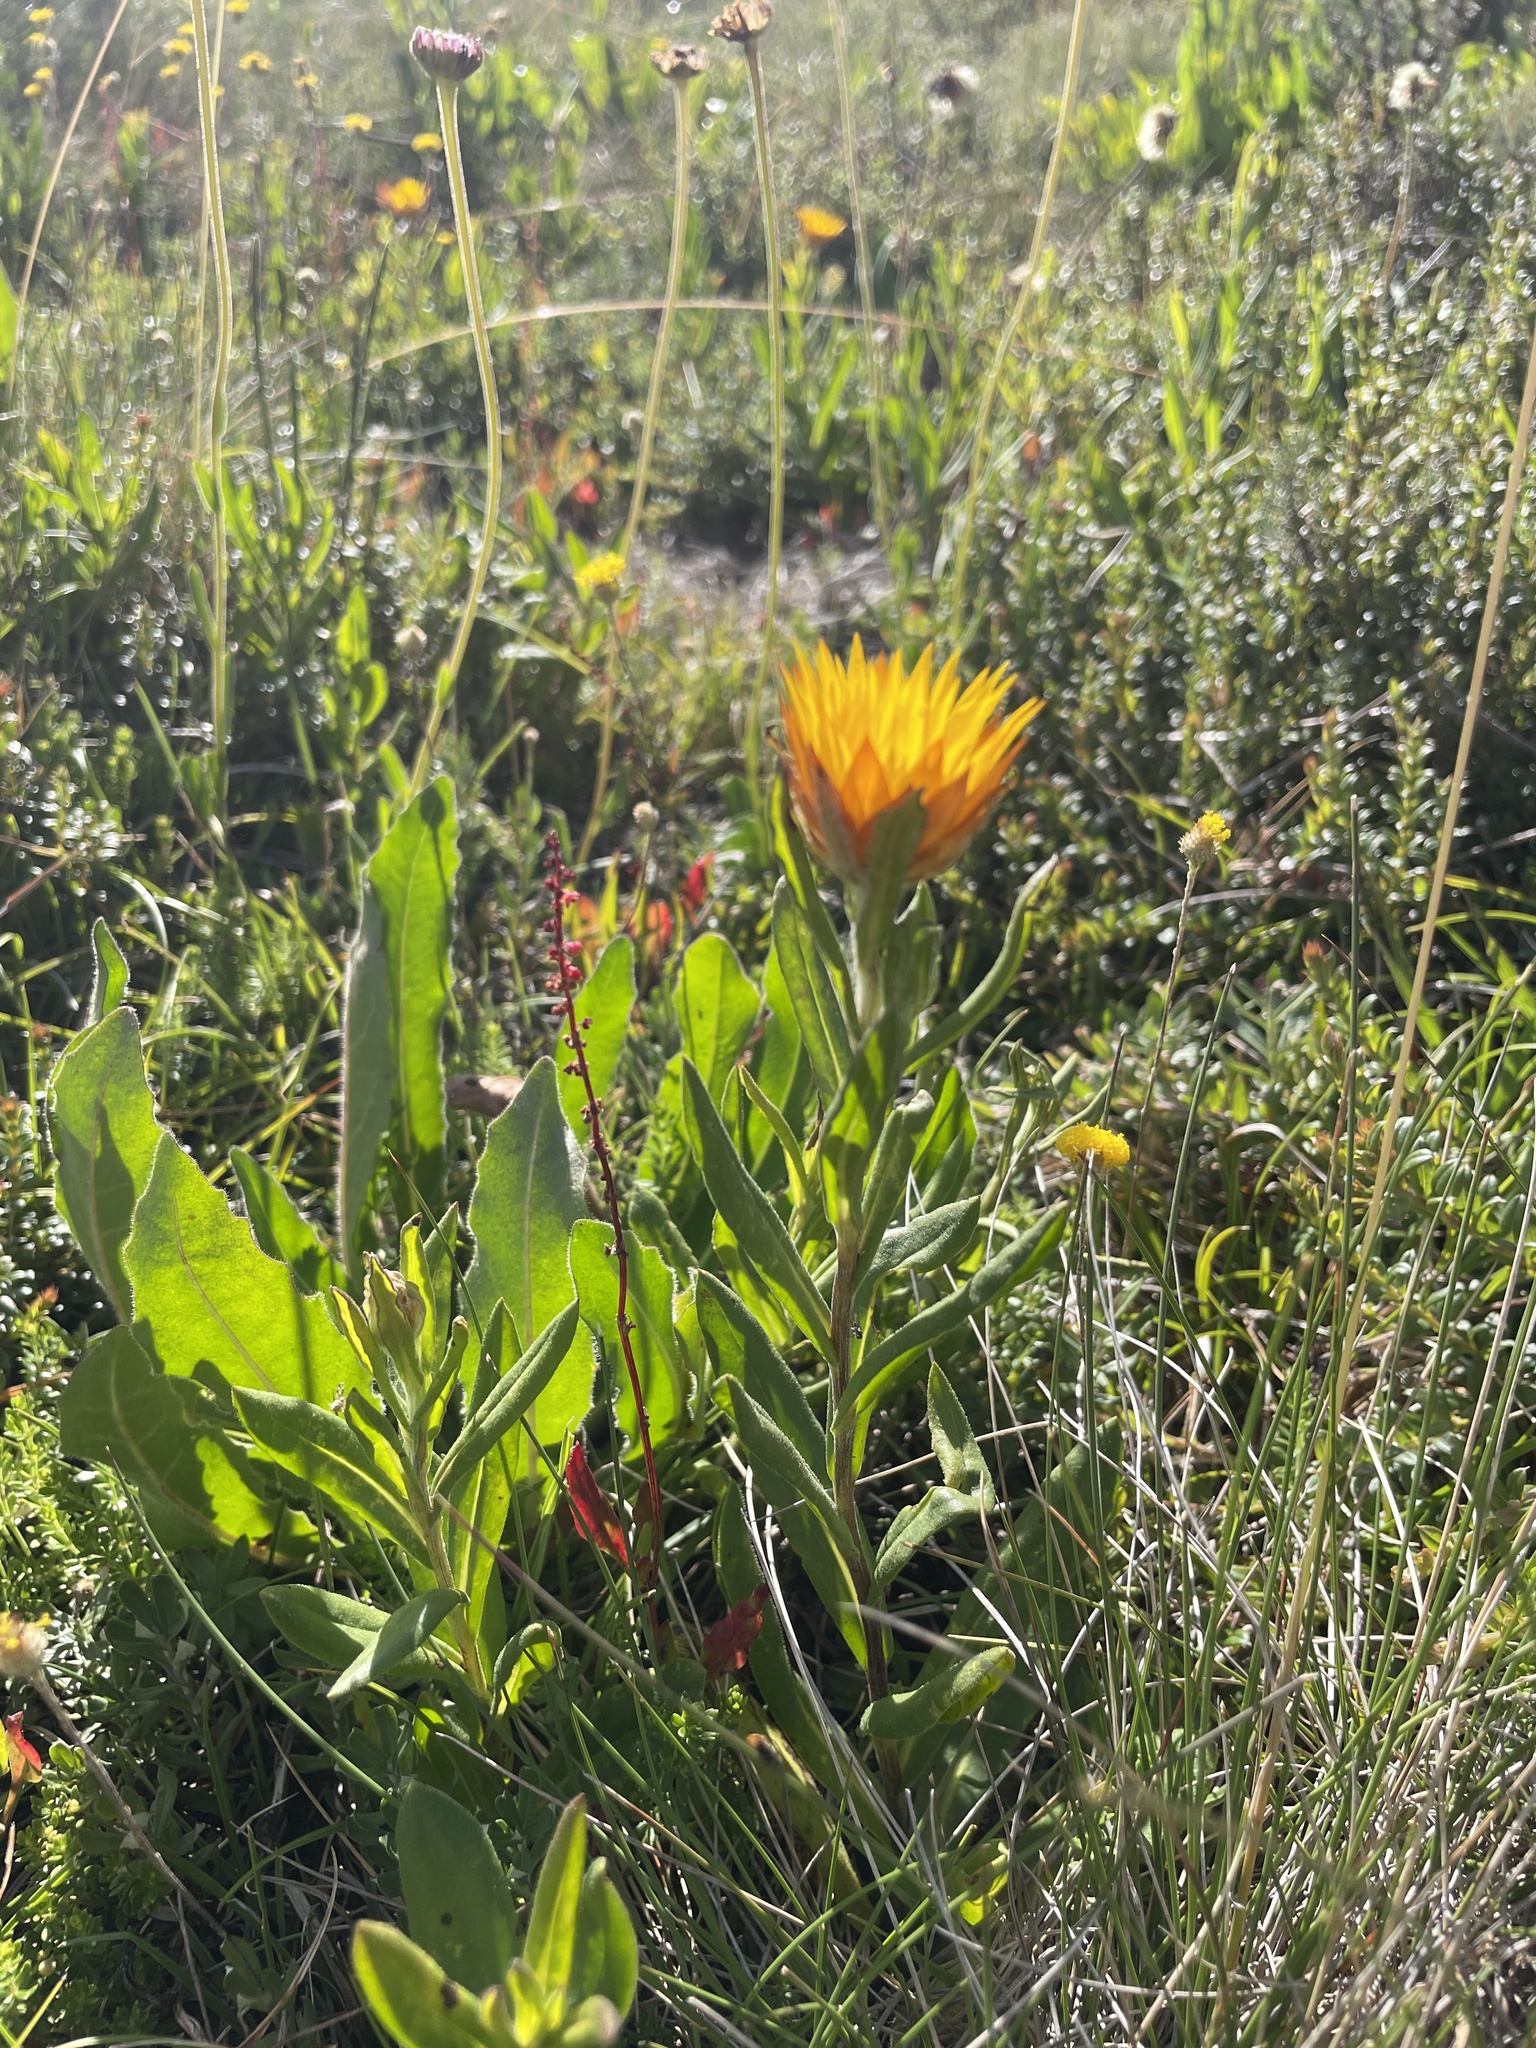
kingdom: Plantae
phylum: Tracheophyta
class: Magnoliopsida
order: Asterales
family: Asteraceae
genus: Xerochrysum
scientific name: Xerochrysum subundulatum
